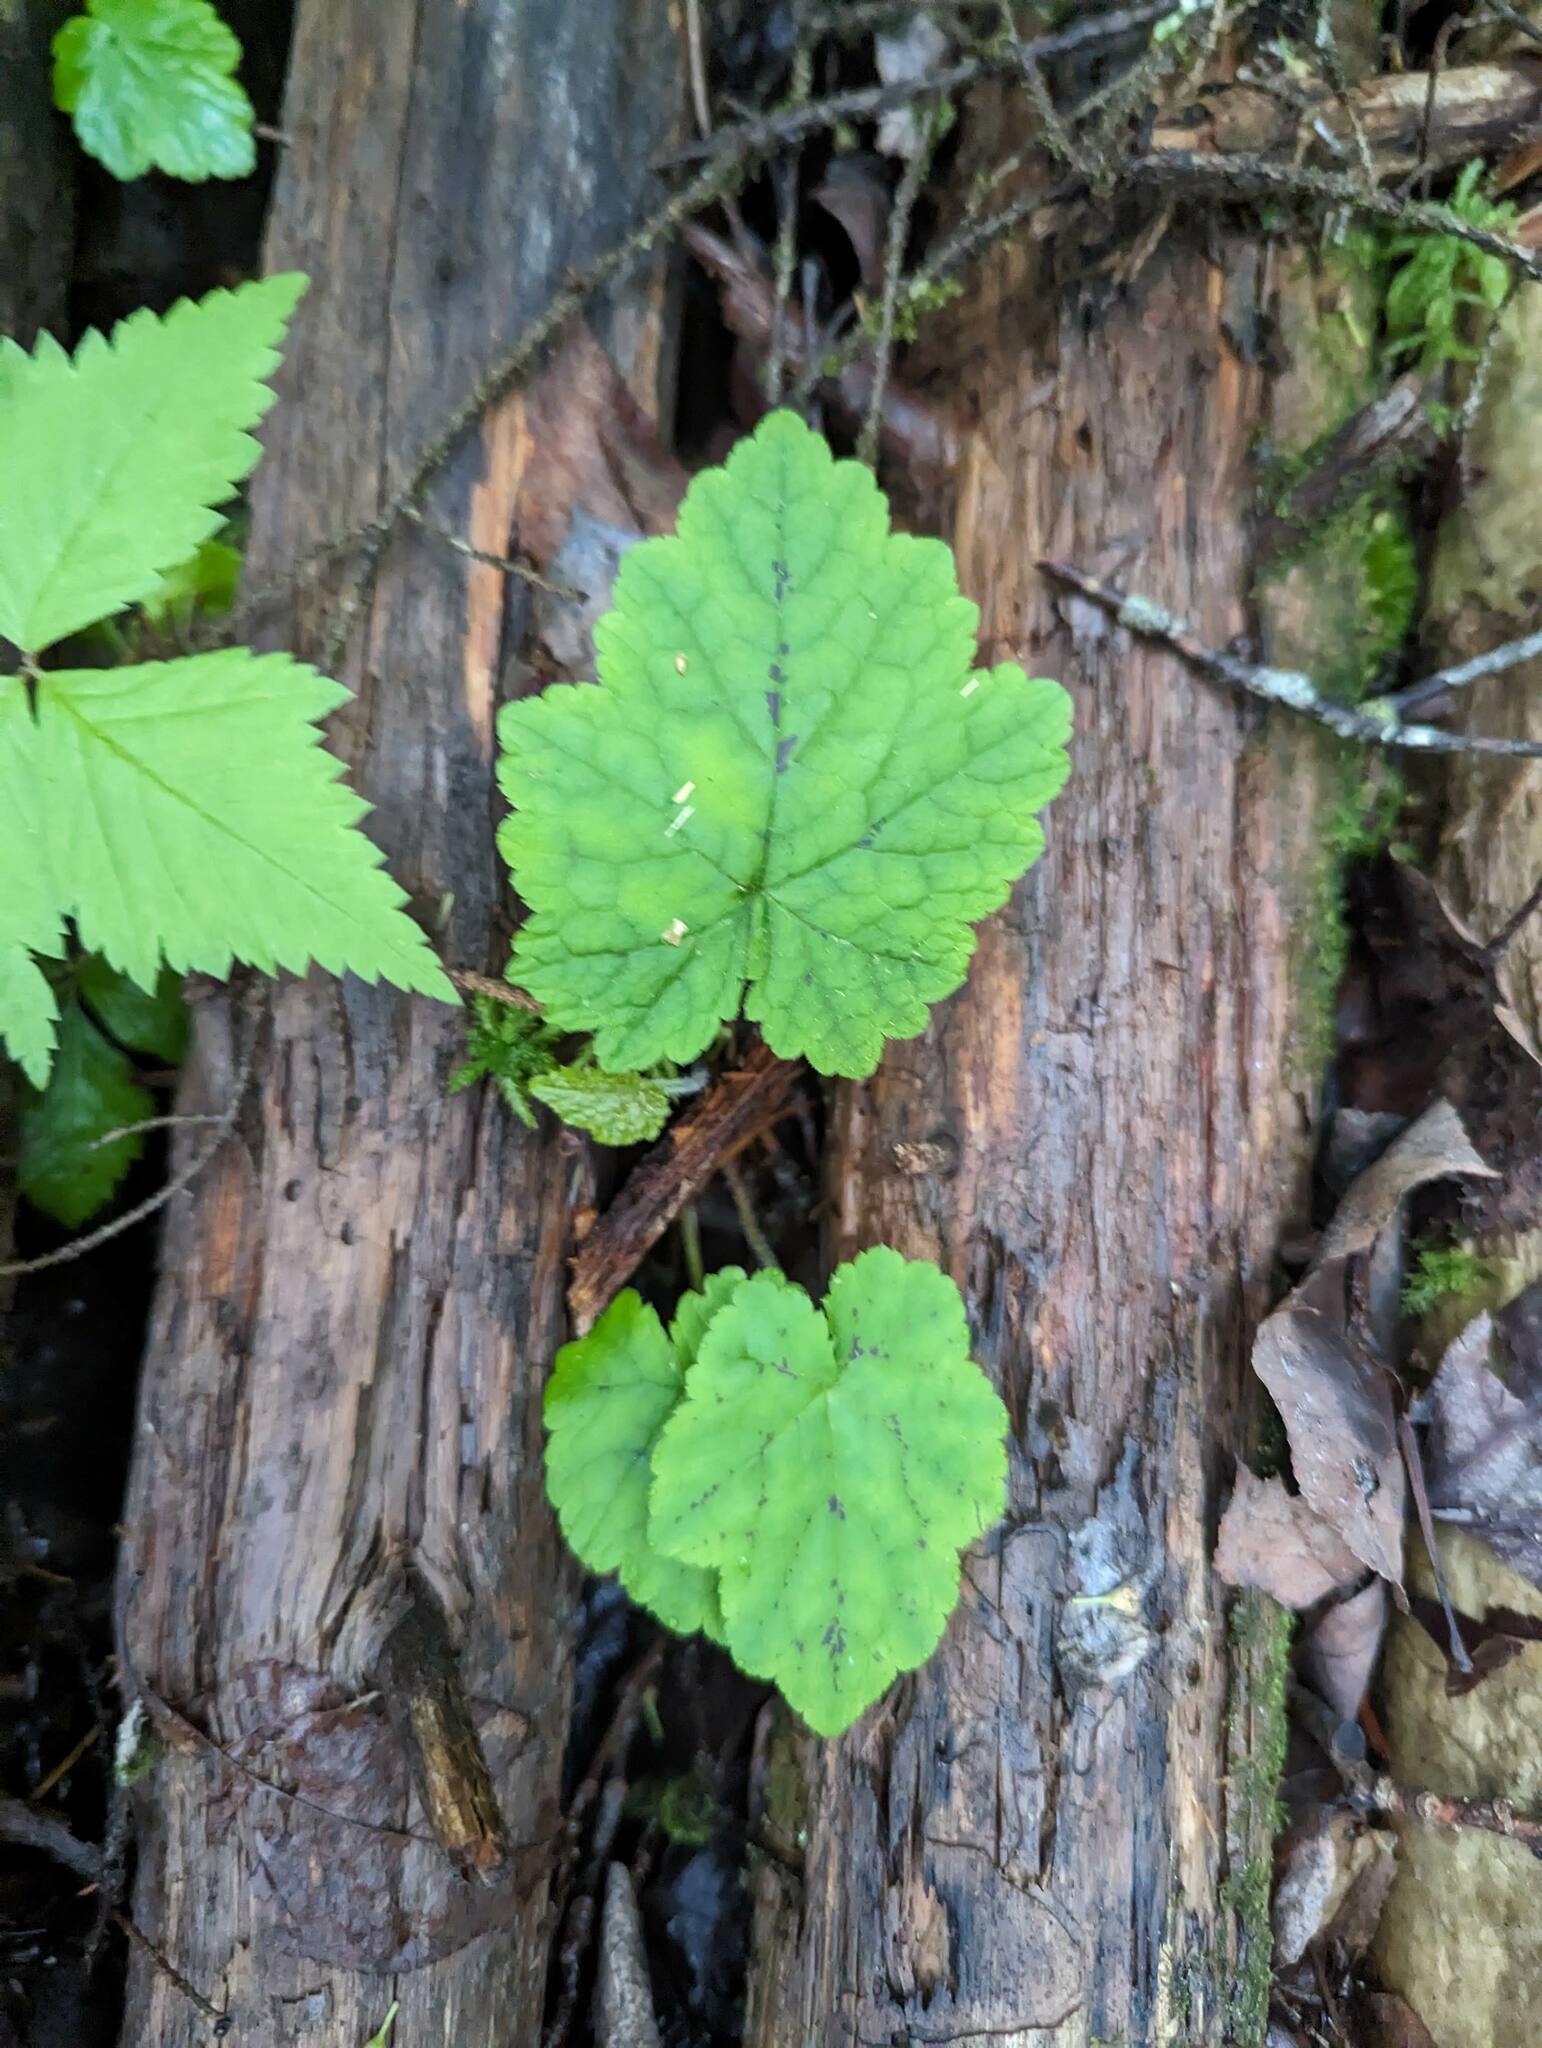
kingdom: Plantae
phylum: Tracheophyta
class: Magnoliopsida
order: Saxifragales
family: Saxifragaceae
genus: Tiarella
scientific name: Tiarella stolonifera
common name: Stoloniferous foamflower
